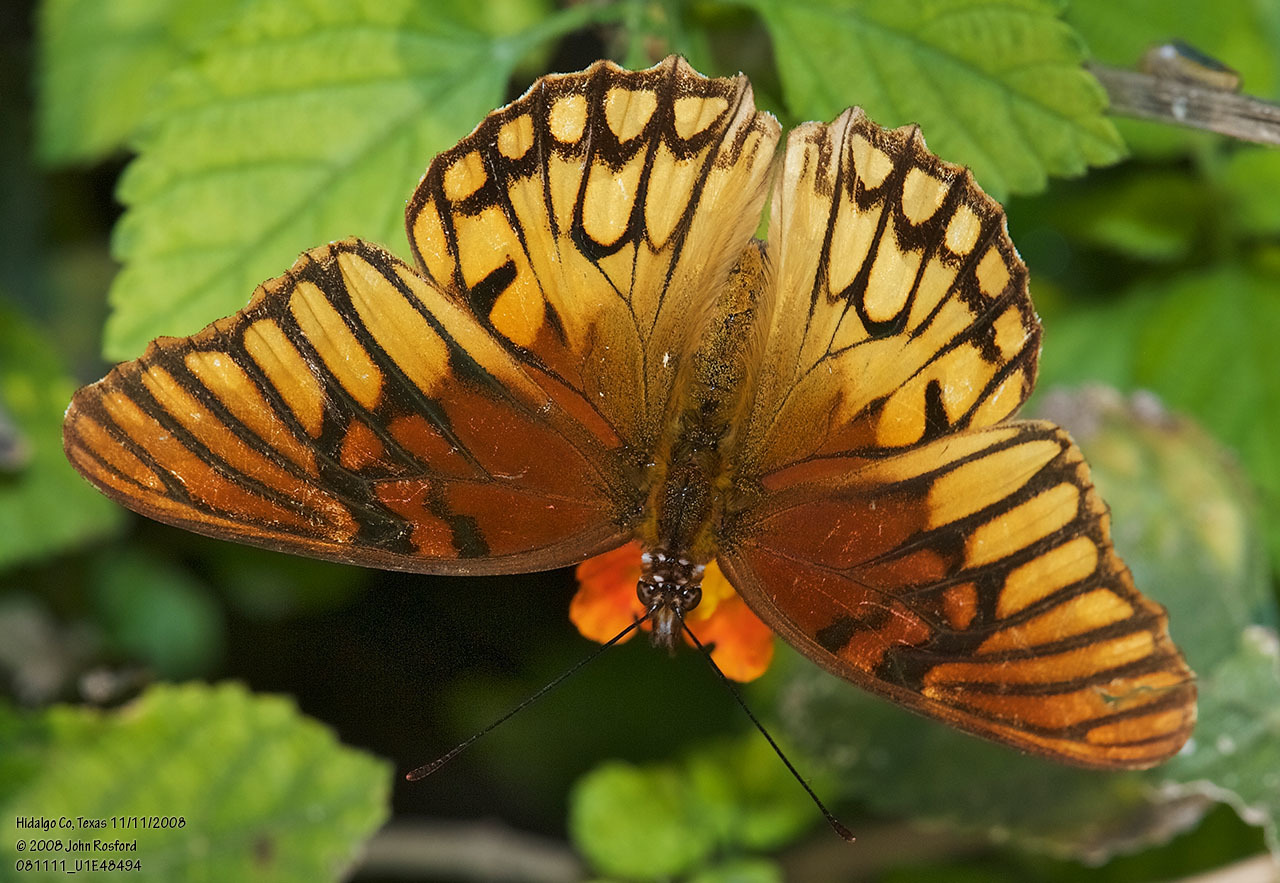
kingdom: Animalia
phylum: Arthropoda
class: Insecta
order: Lepidoptera
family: Nymphalidae
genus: Dione
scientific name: Dione moneta
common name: Mexican silverspot
